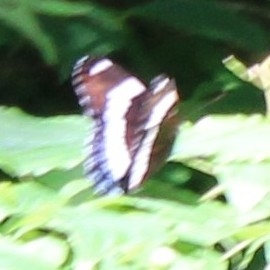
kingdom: Animalia
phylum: Arthropoda
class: Insecta
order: Lepidoptera
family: Nymphalidae
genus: Limenitis
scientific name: Limenitis arthemis
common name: Red-spotted admiral
